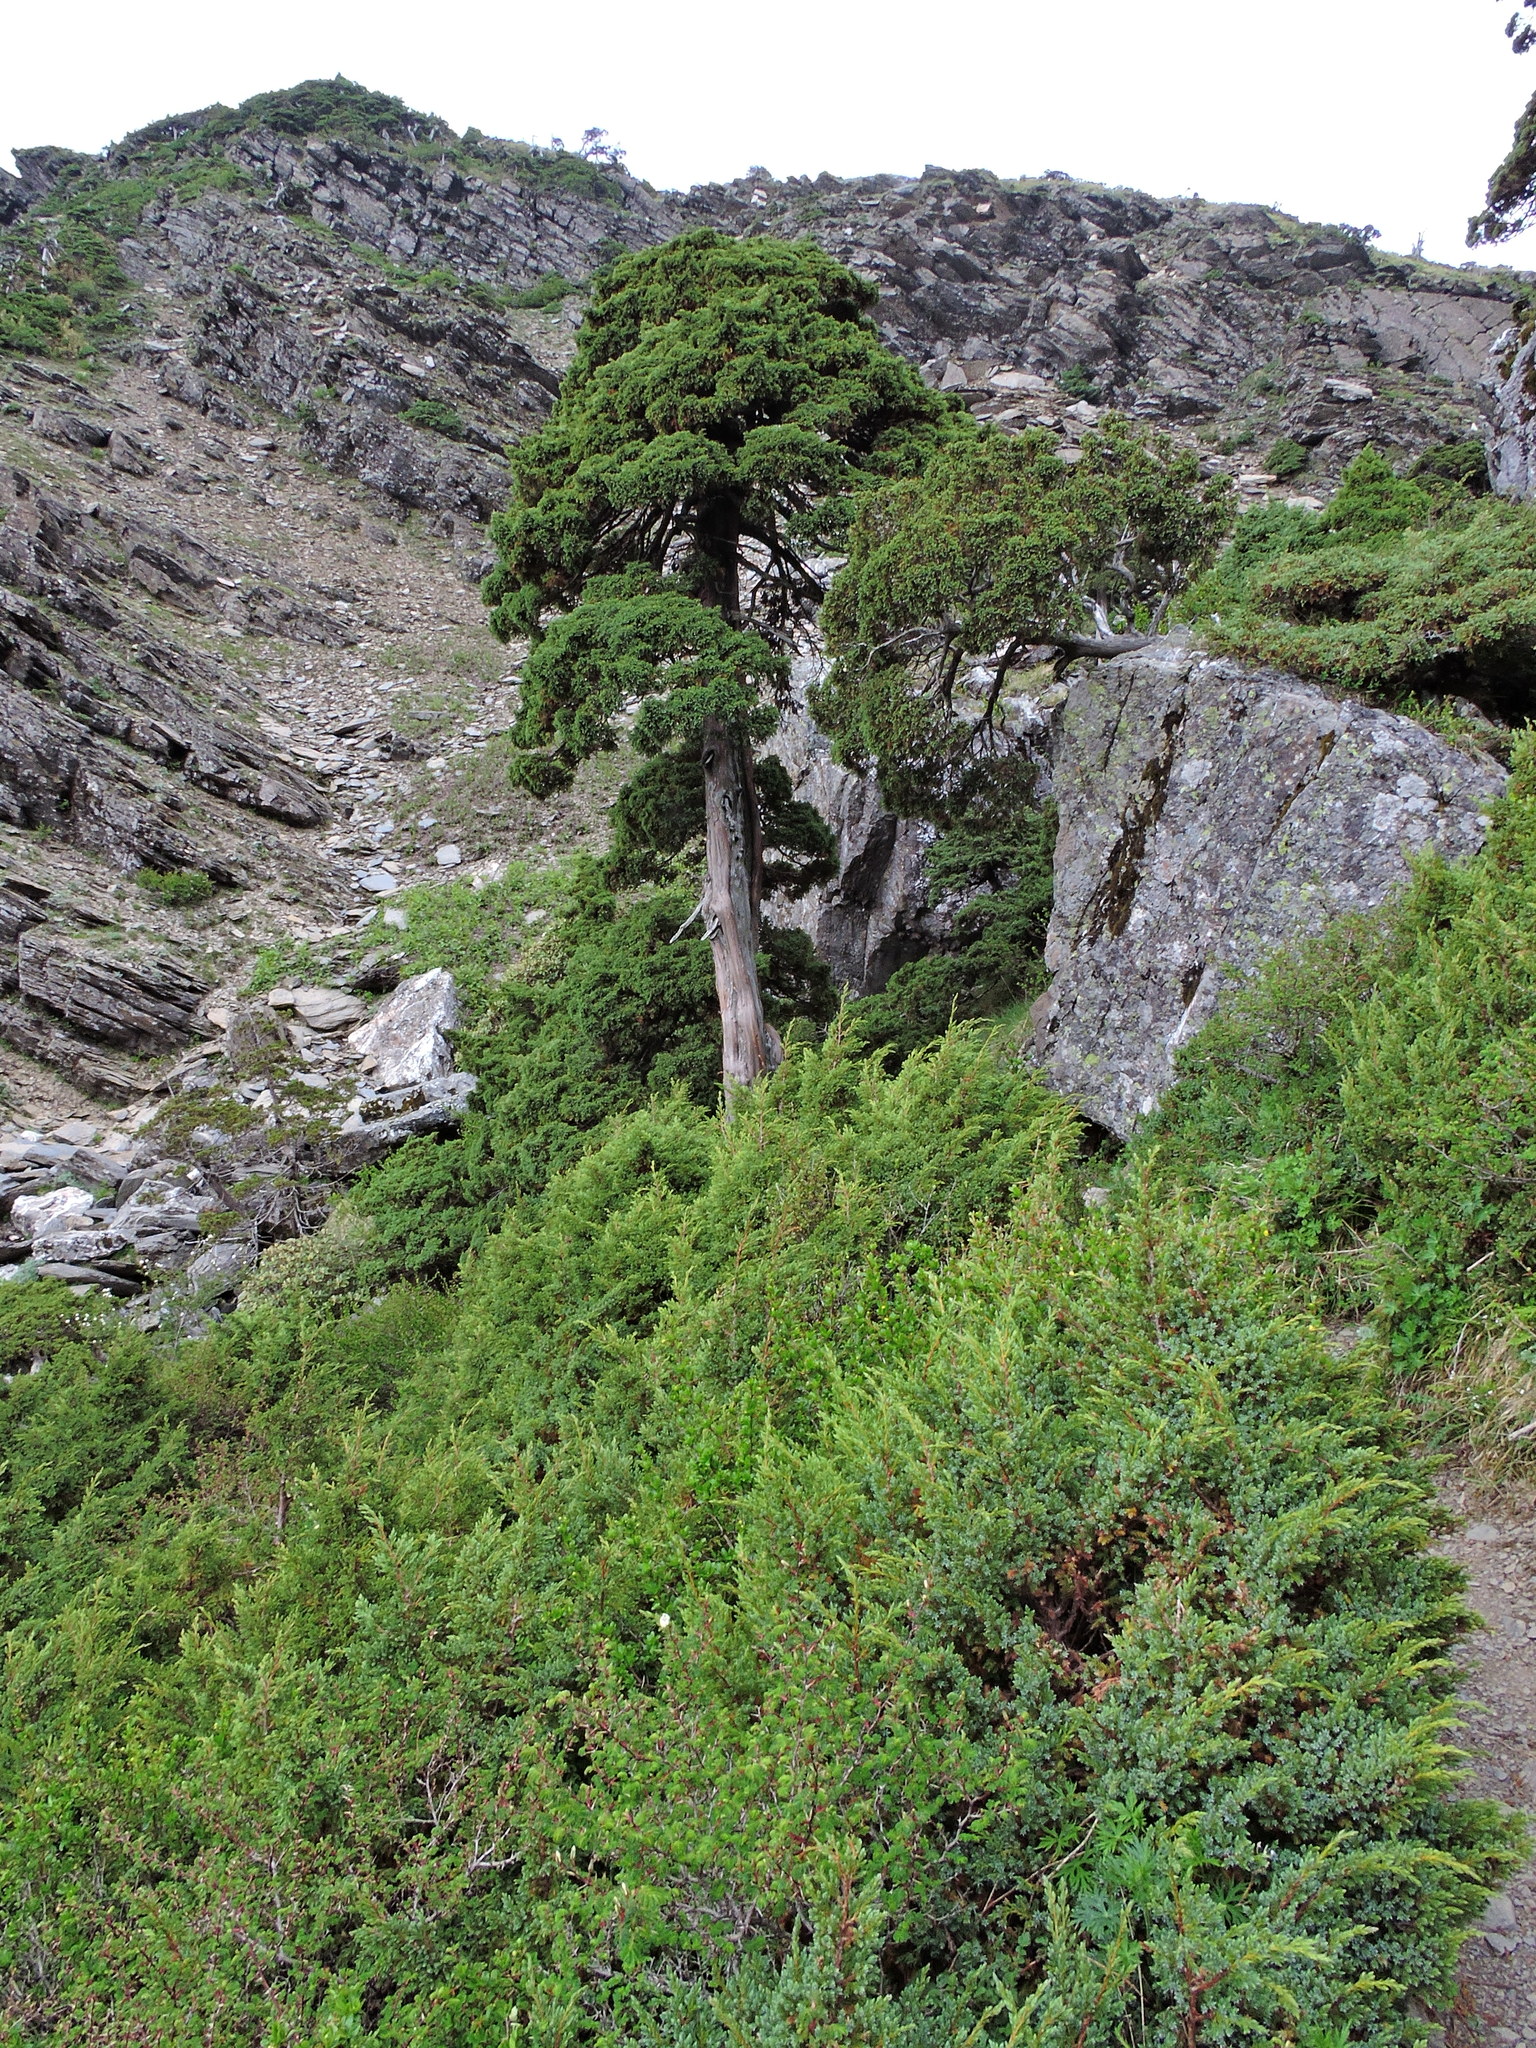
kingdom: Plantae
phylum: Tracheophyta
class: Pinopsida
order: Pinales
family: Cupressaceae
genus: Juniperus
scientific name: Juniperus squamata
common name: Flaky juniper
